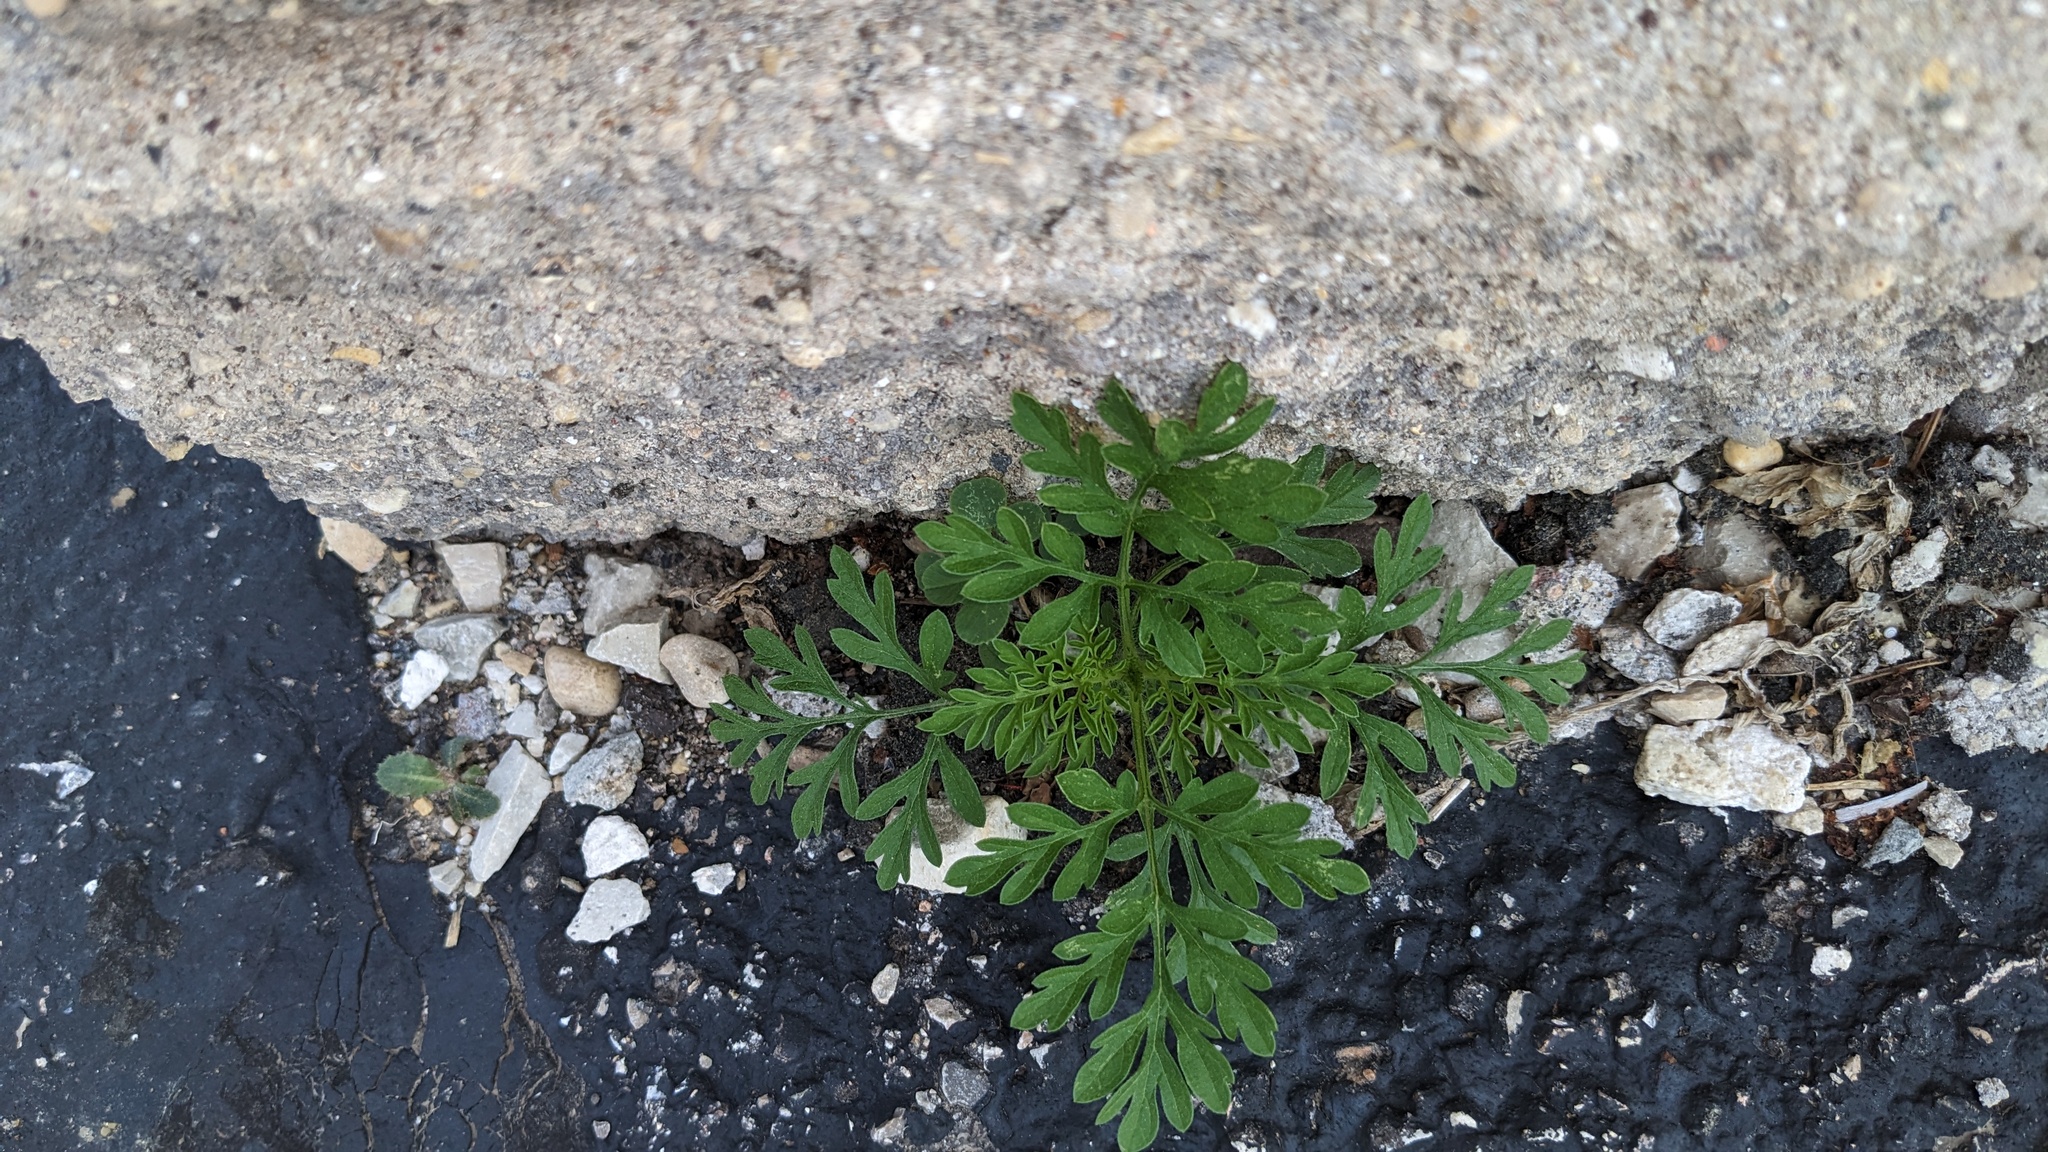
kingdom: Plantae
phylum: Tracheophyta
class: Magnoliopsida
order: Asterales
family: Asteraceae
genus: Ambrosia
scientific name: Ambrosia artemisiifolia
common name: Annual ragweed
